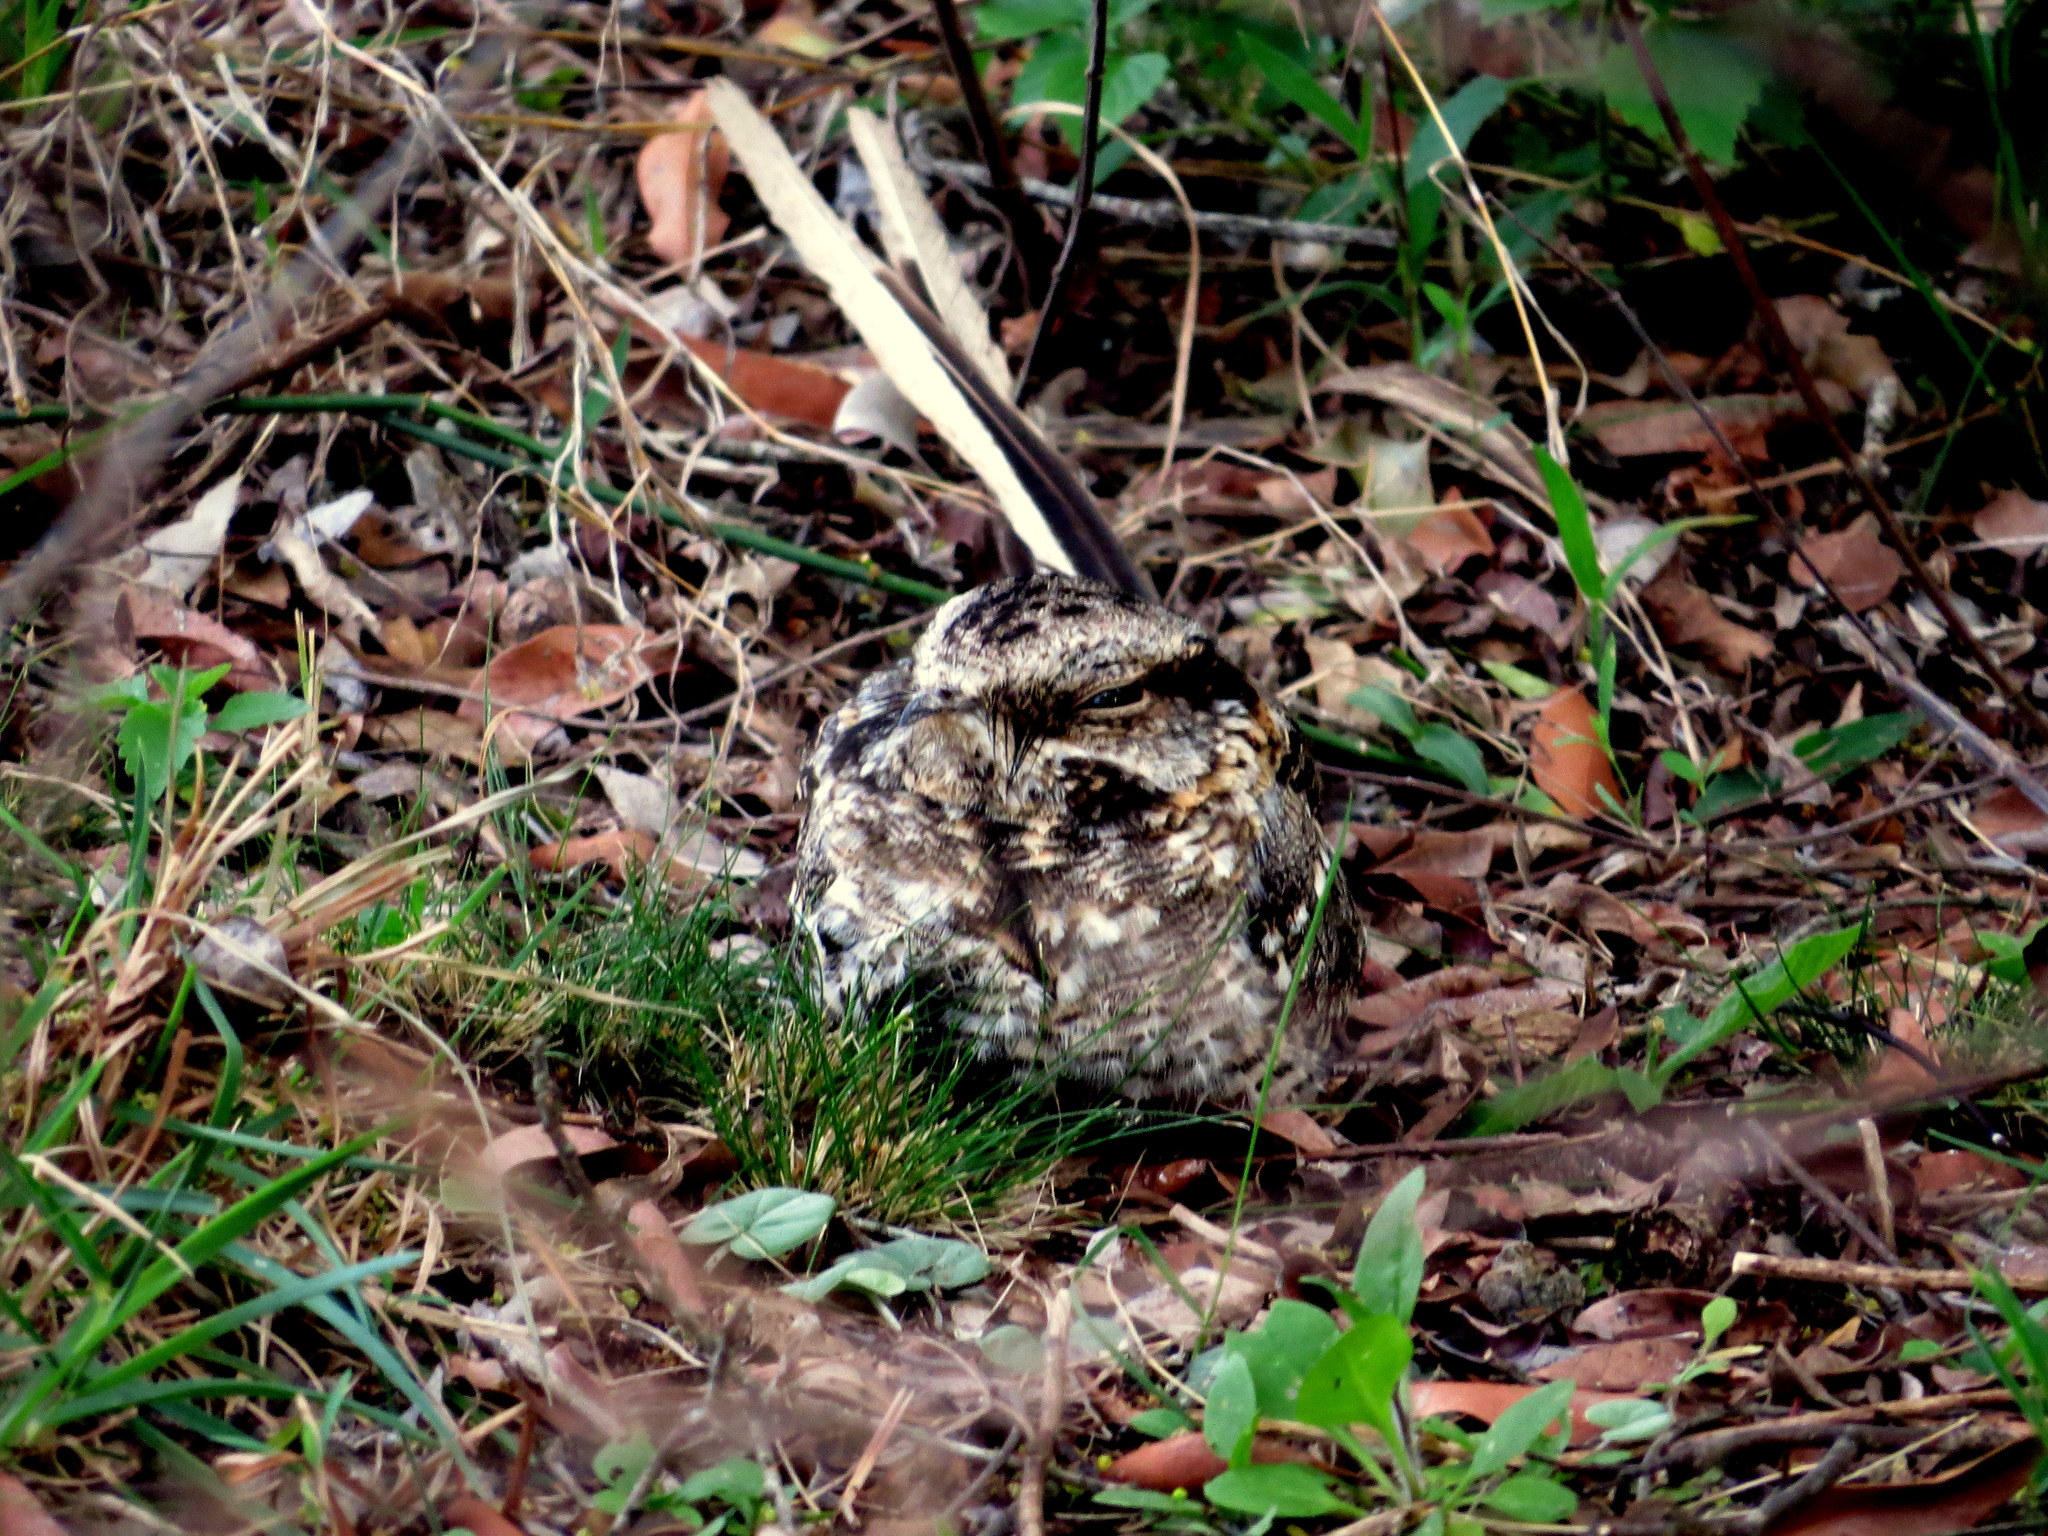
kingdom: Animalia
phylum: Chordata
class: Aves
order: Caprimulgiformes
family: Caprimulgidae
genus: Hydropsalis
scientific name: Hydropsalis torquata
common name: Scissor-tailed nightjar
